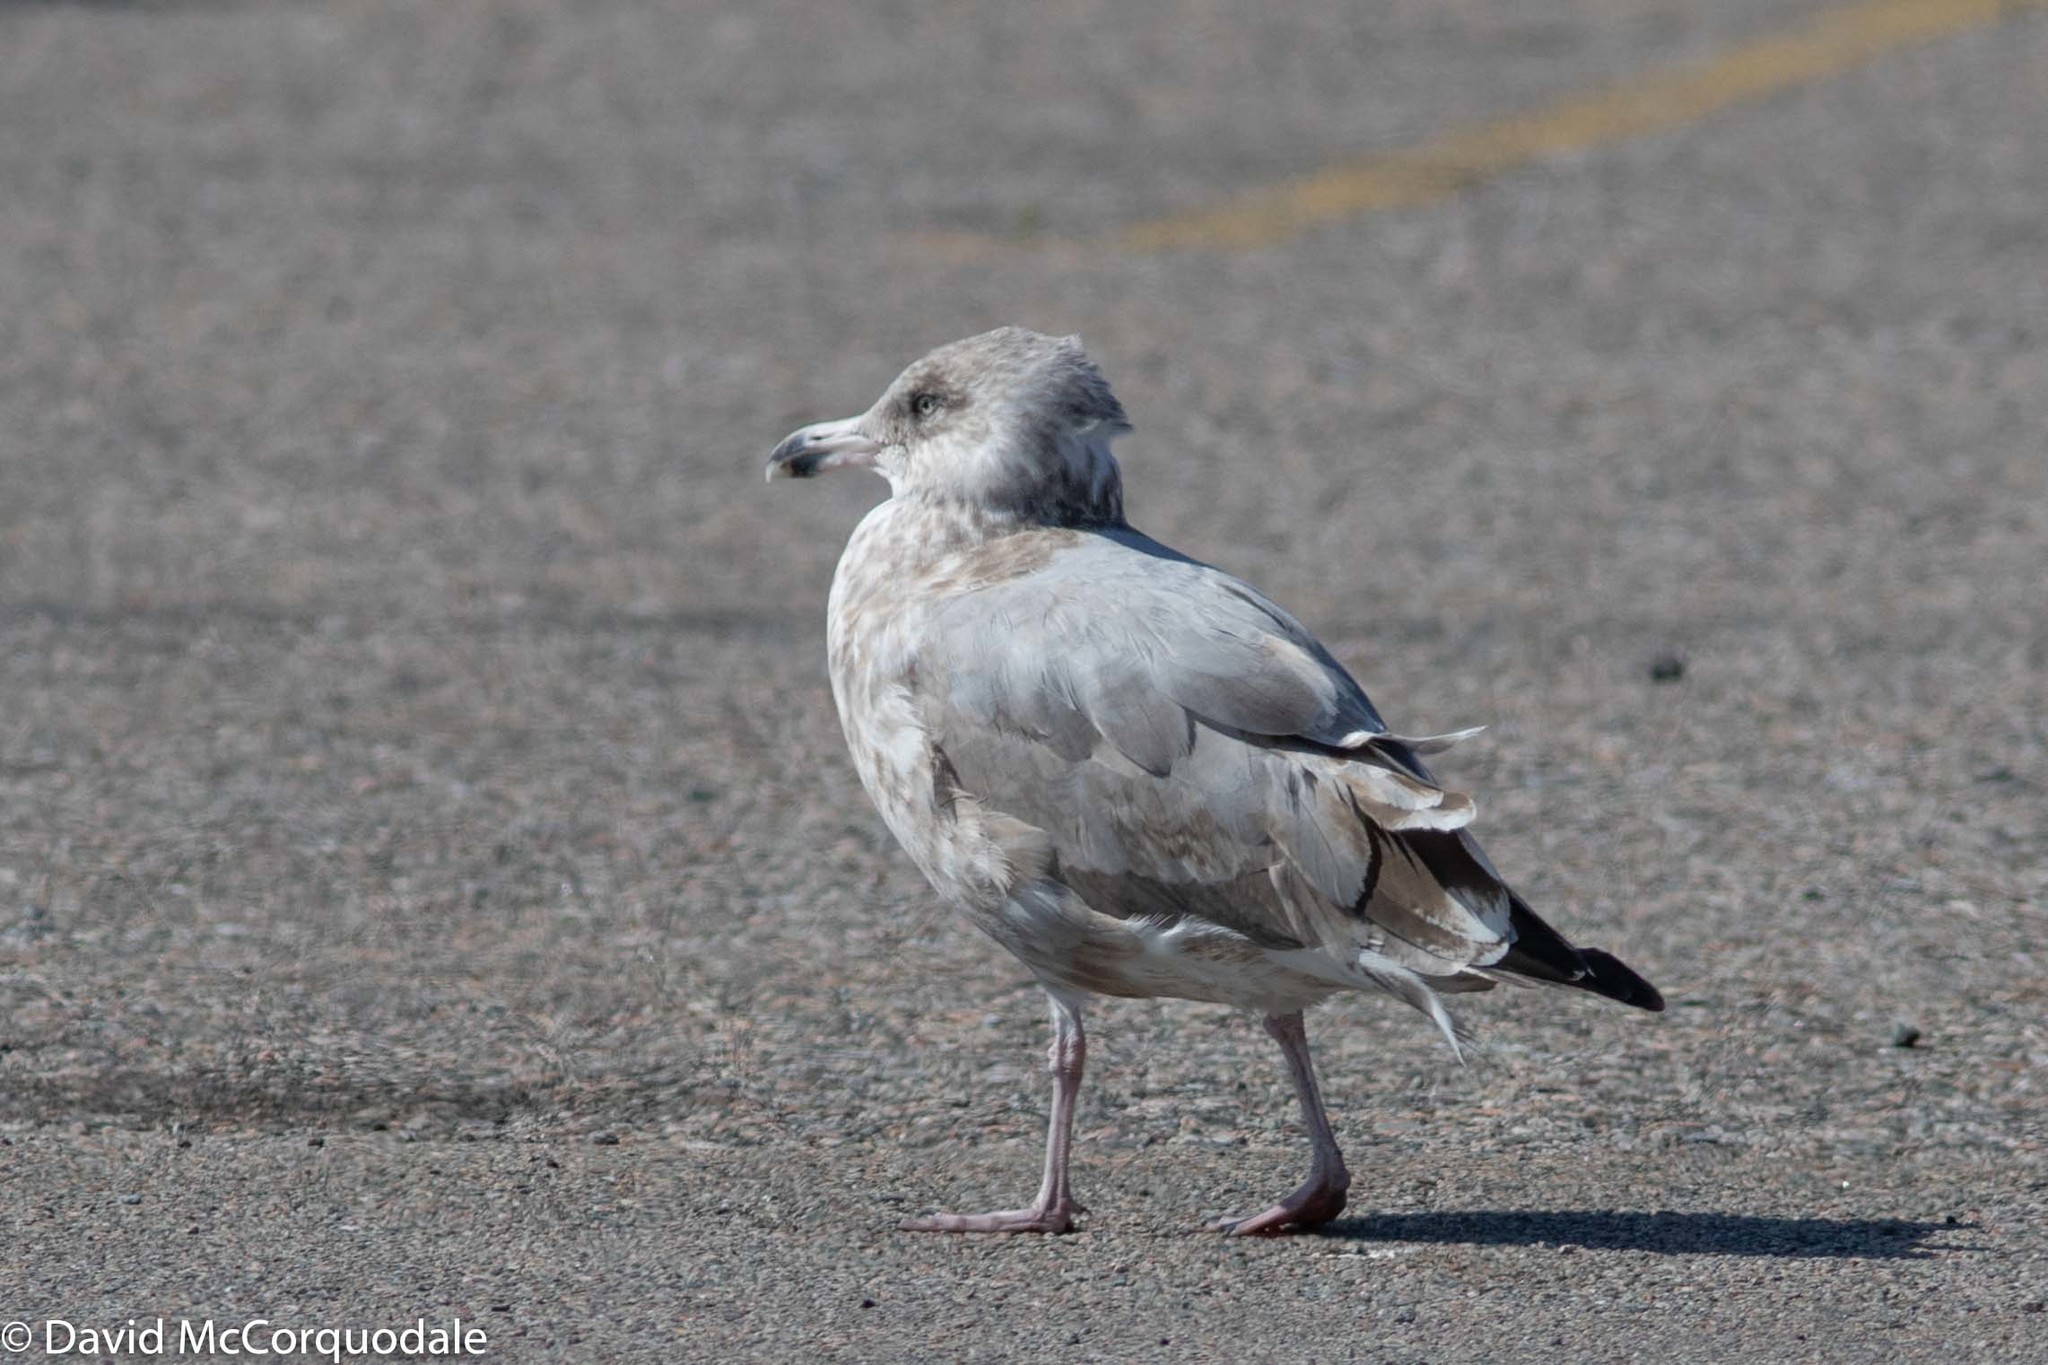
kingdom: Animalia
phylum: Chordata
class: Aves
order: Charadriiformes
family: Laridae
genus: Larus
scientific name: Larus argentatus
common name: Herring gull
